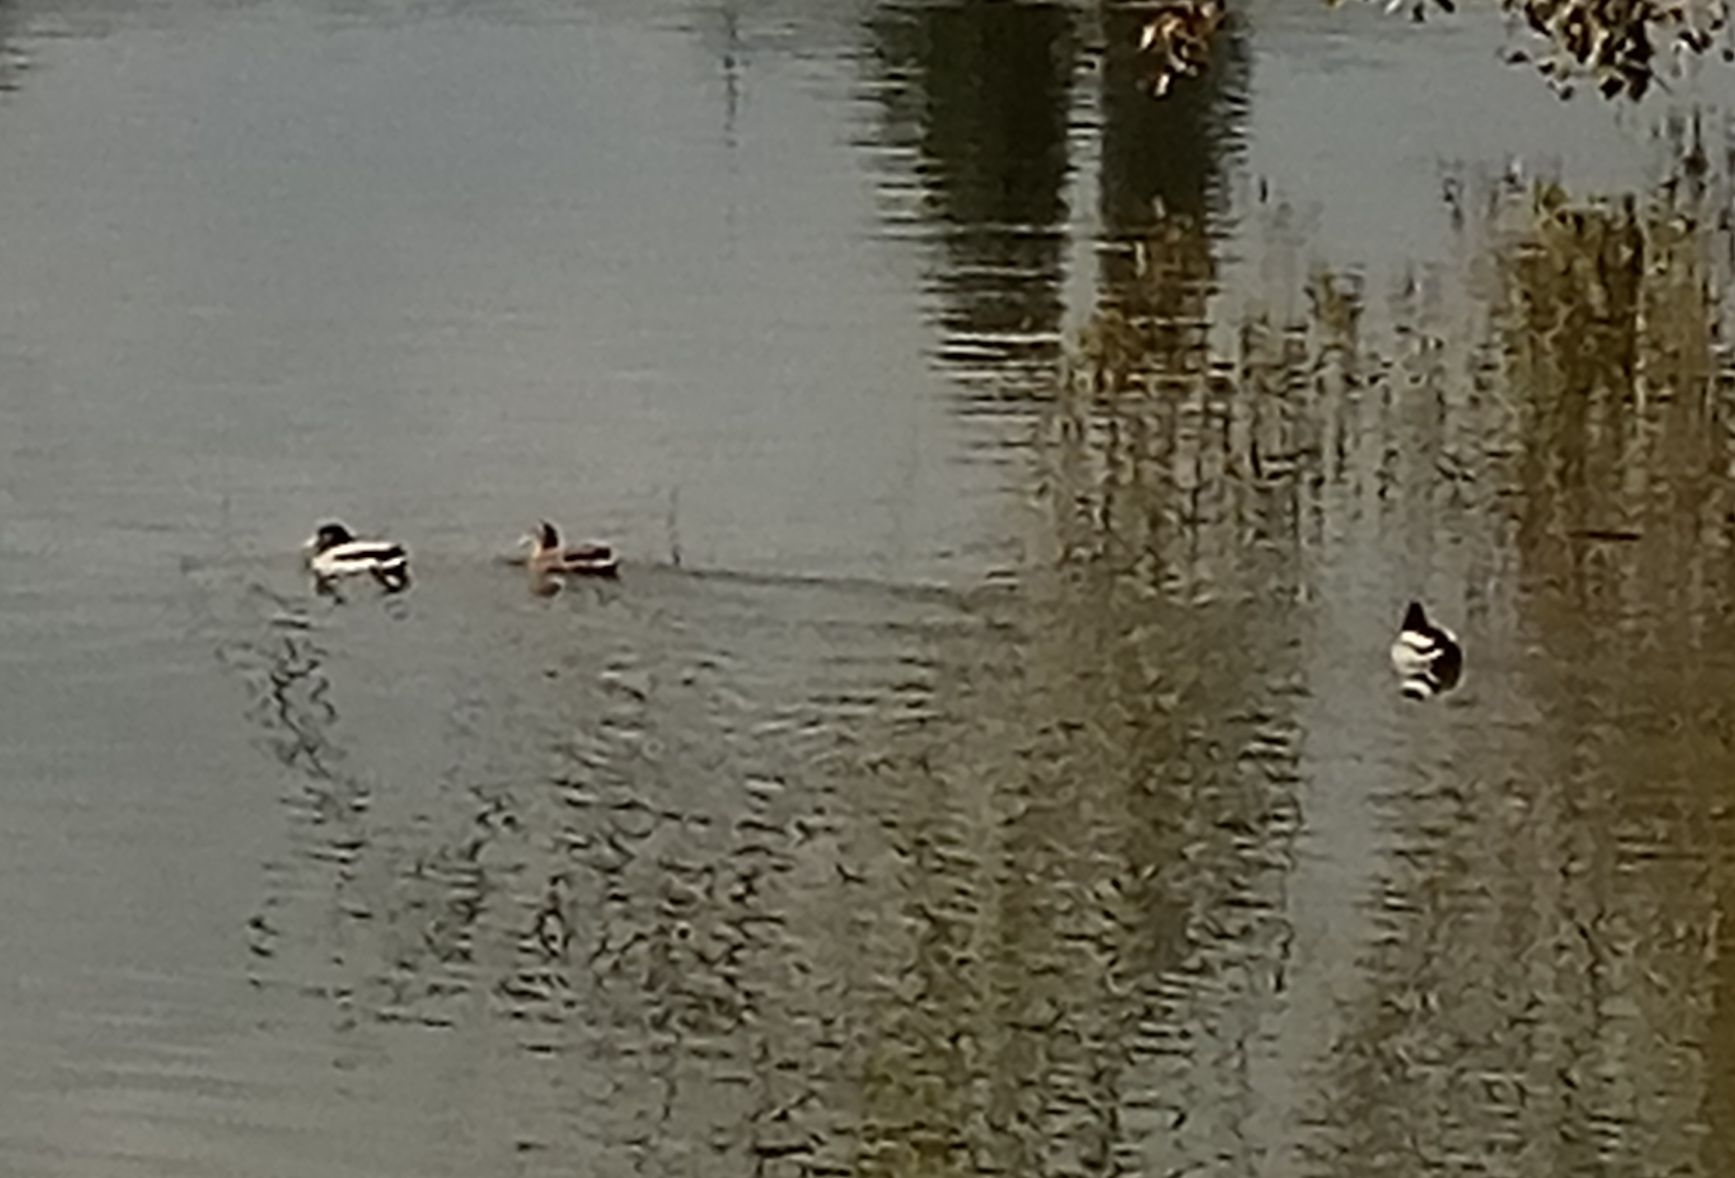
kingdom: Animalia
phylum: Chordata
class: Aves
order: Anseriformes
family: Anatidae
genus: Anas
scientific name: Anas platyrhynchos
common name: Mallard
